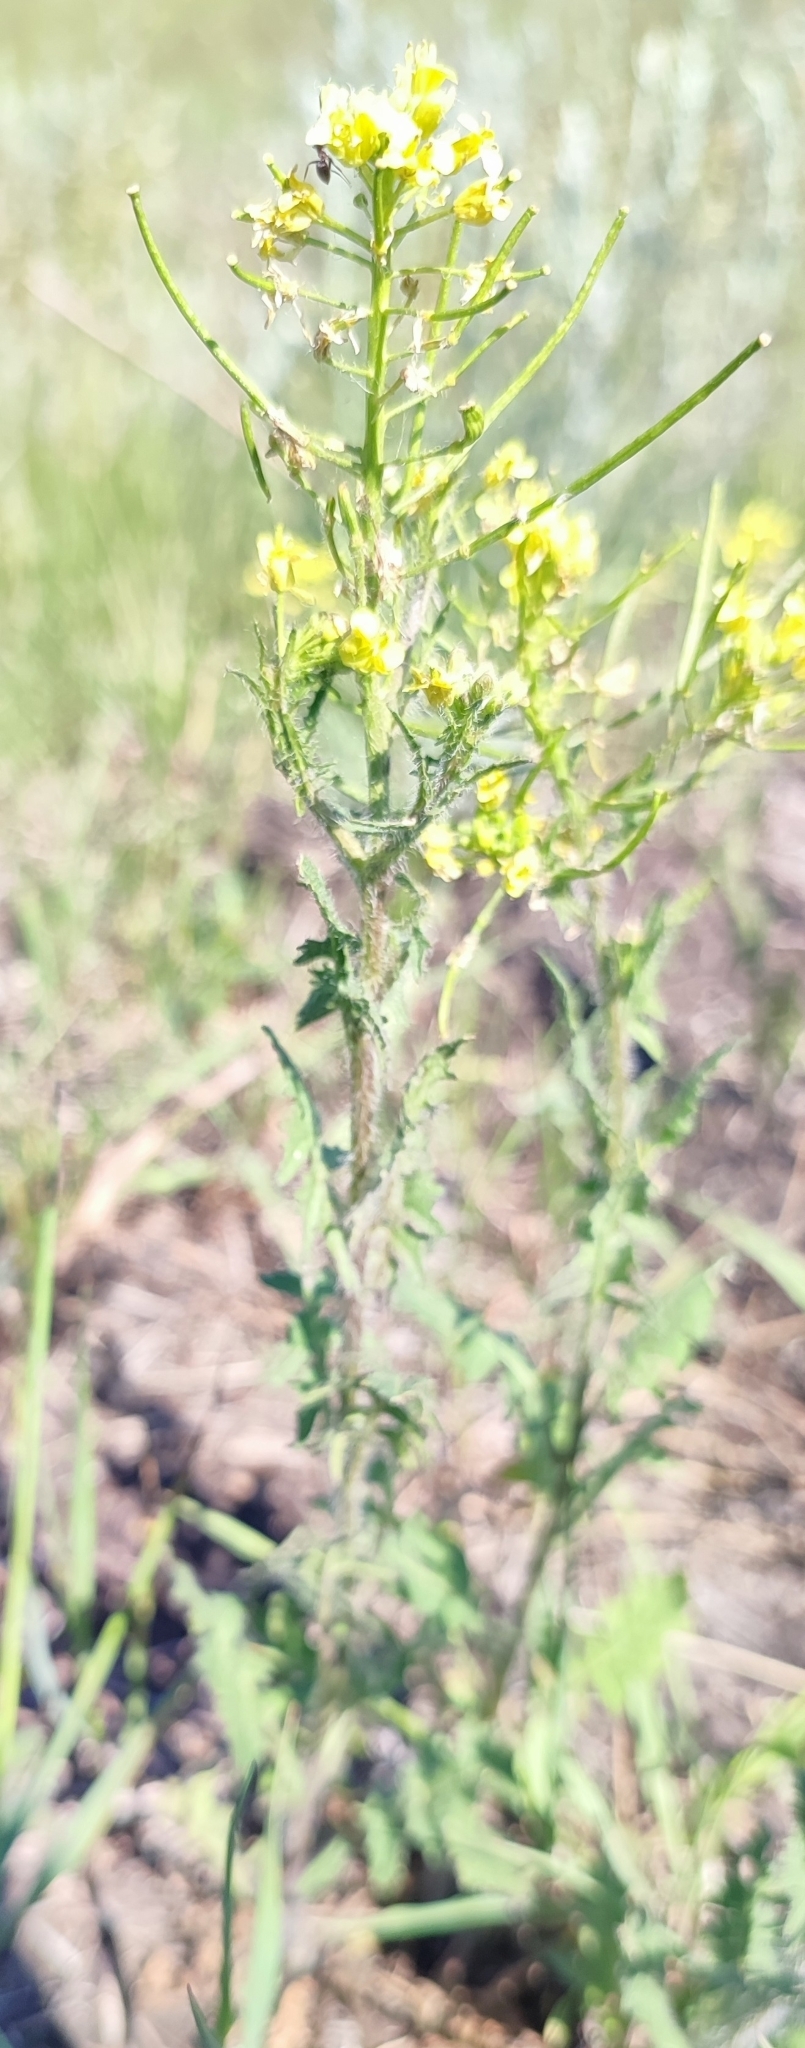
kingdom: Plantae
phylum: Tracheophyta
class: Magnoliopsida
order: Brassicales
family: Brassicaceae
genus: Sisymbrium
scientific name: Sisymbrium loeselii
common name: False london-rocket
